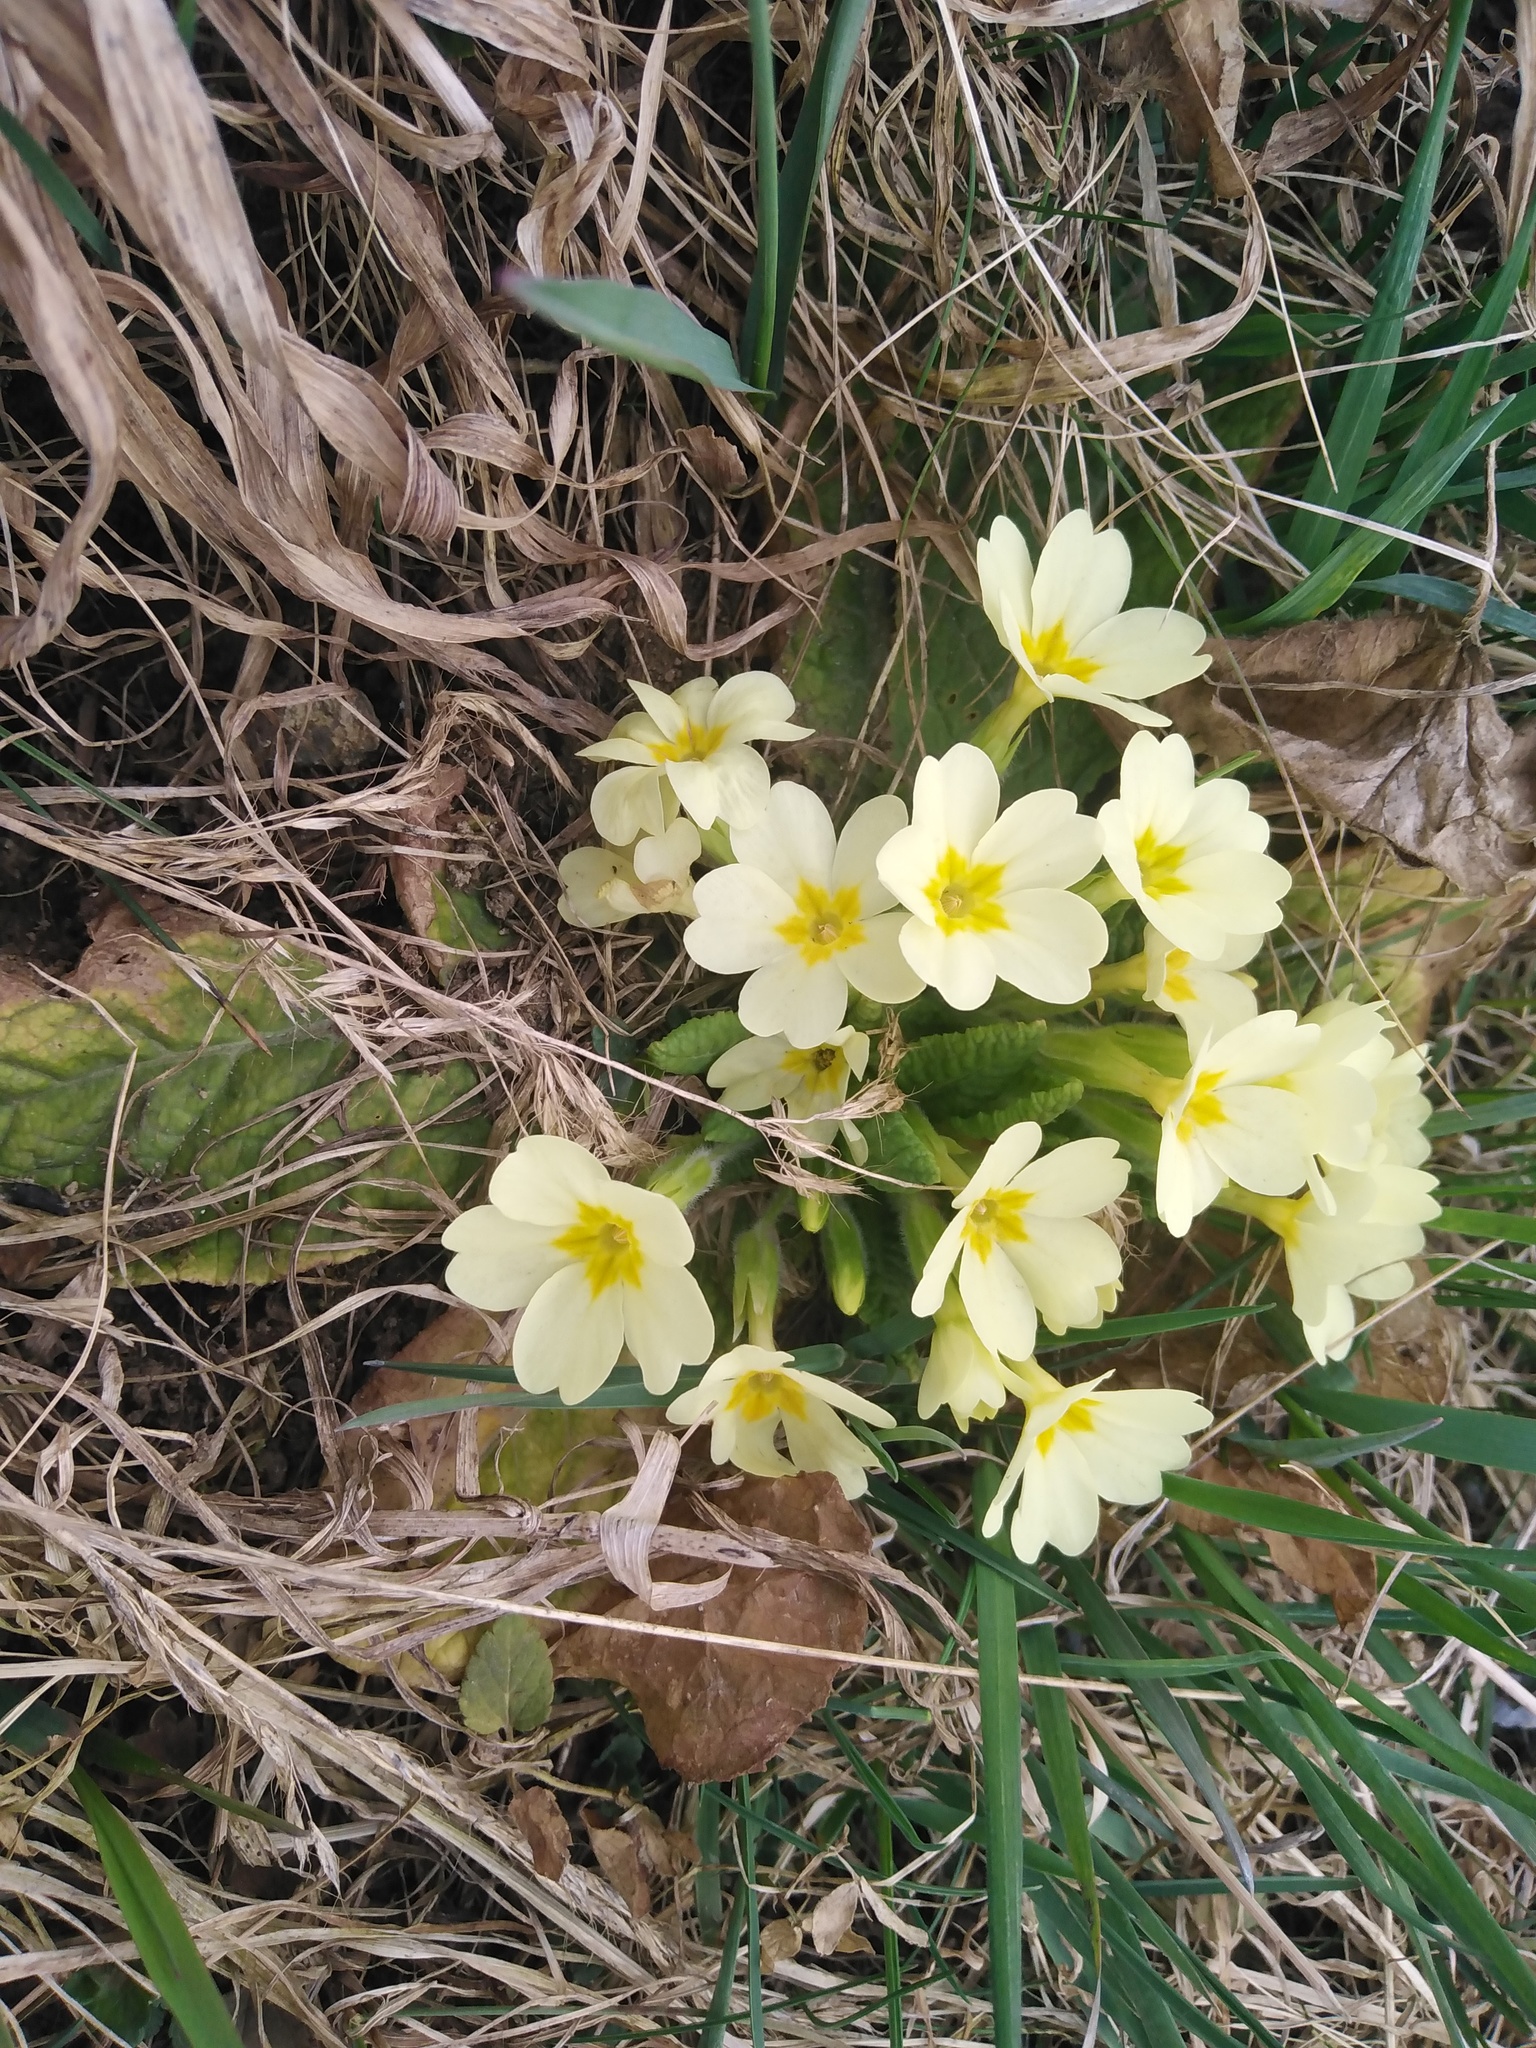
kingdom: Plantae
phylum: Tracheophyta
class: Magnoliopsida
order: Ericales
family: Primulaceae
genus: Primula
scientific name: Primula vulgaris
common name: Primrose
